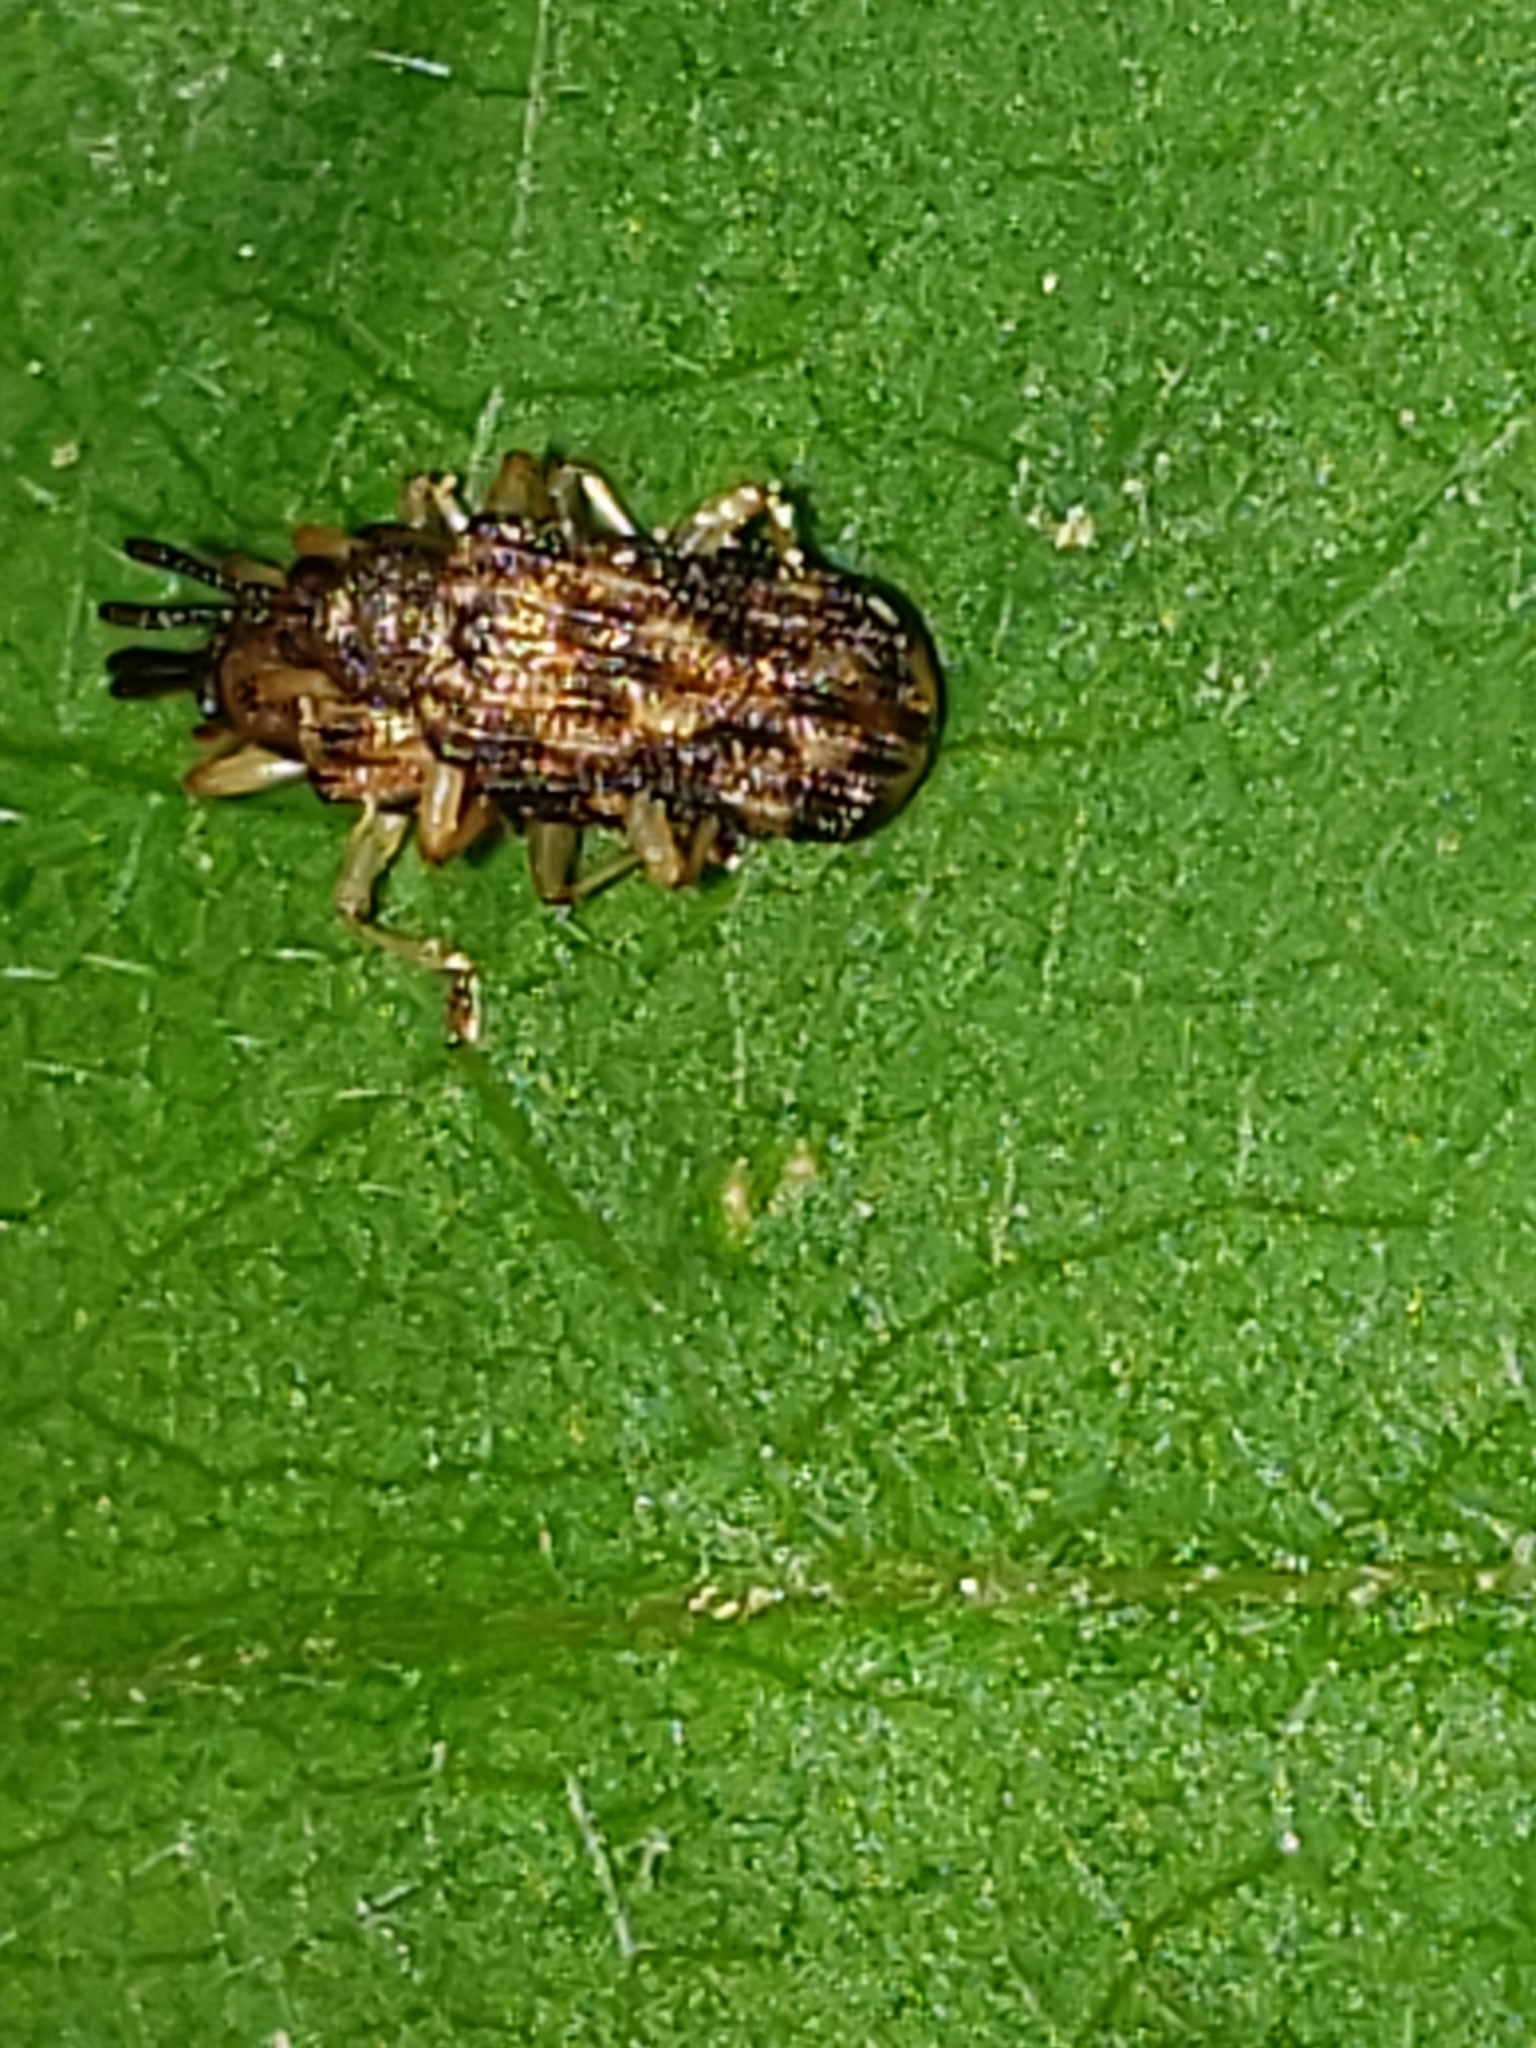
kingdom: Animalia
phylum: Arthropoda
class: Insecta
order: Coleoptera
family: Chrysomelidae
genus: Sumitrosis
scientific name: Sumitrosis inaequalis
